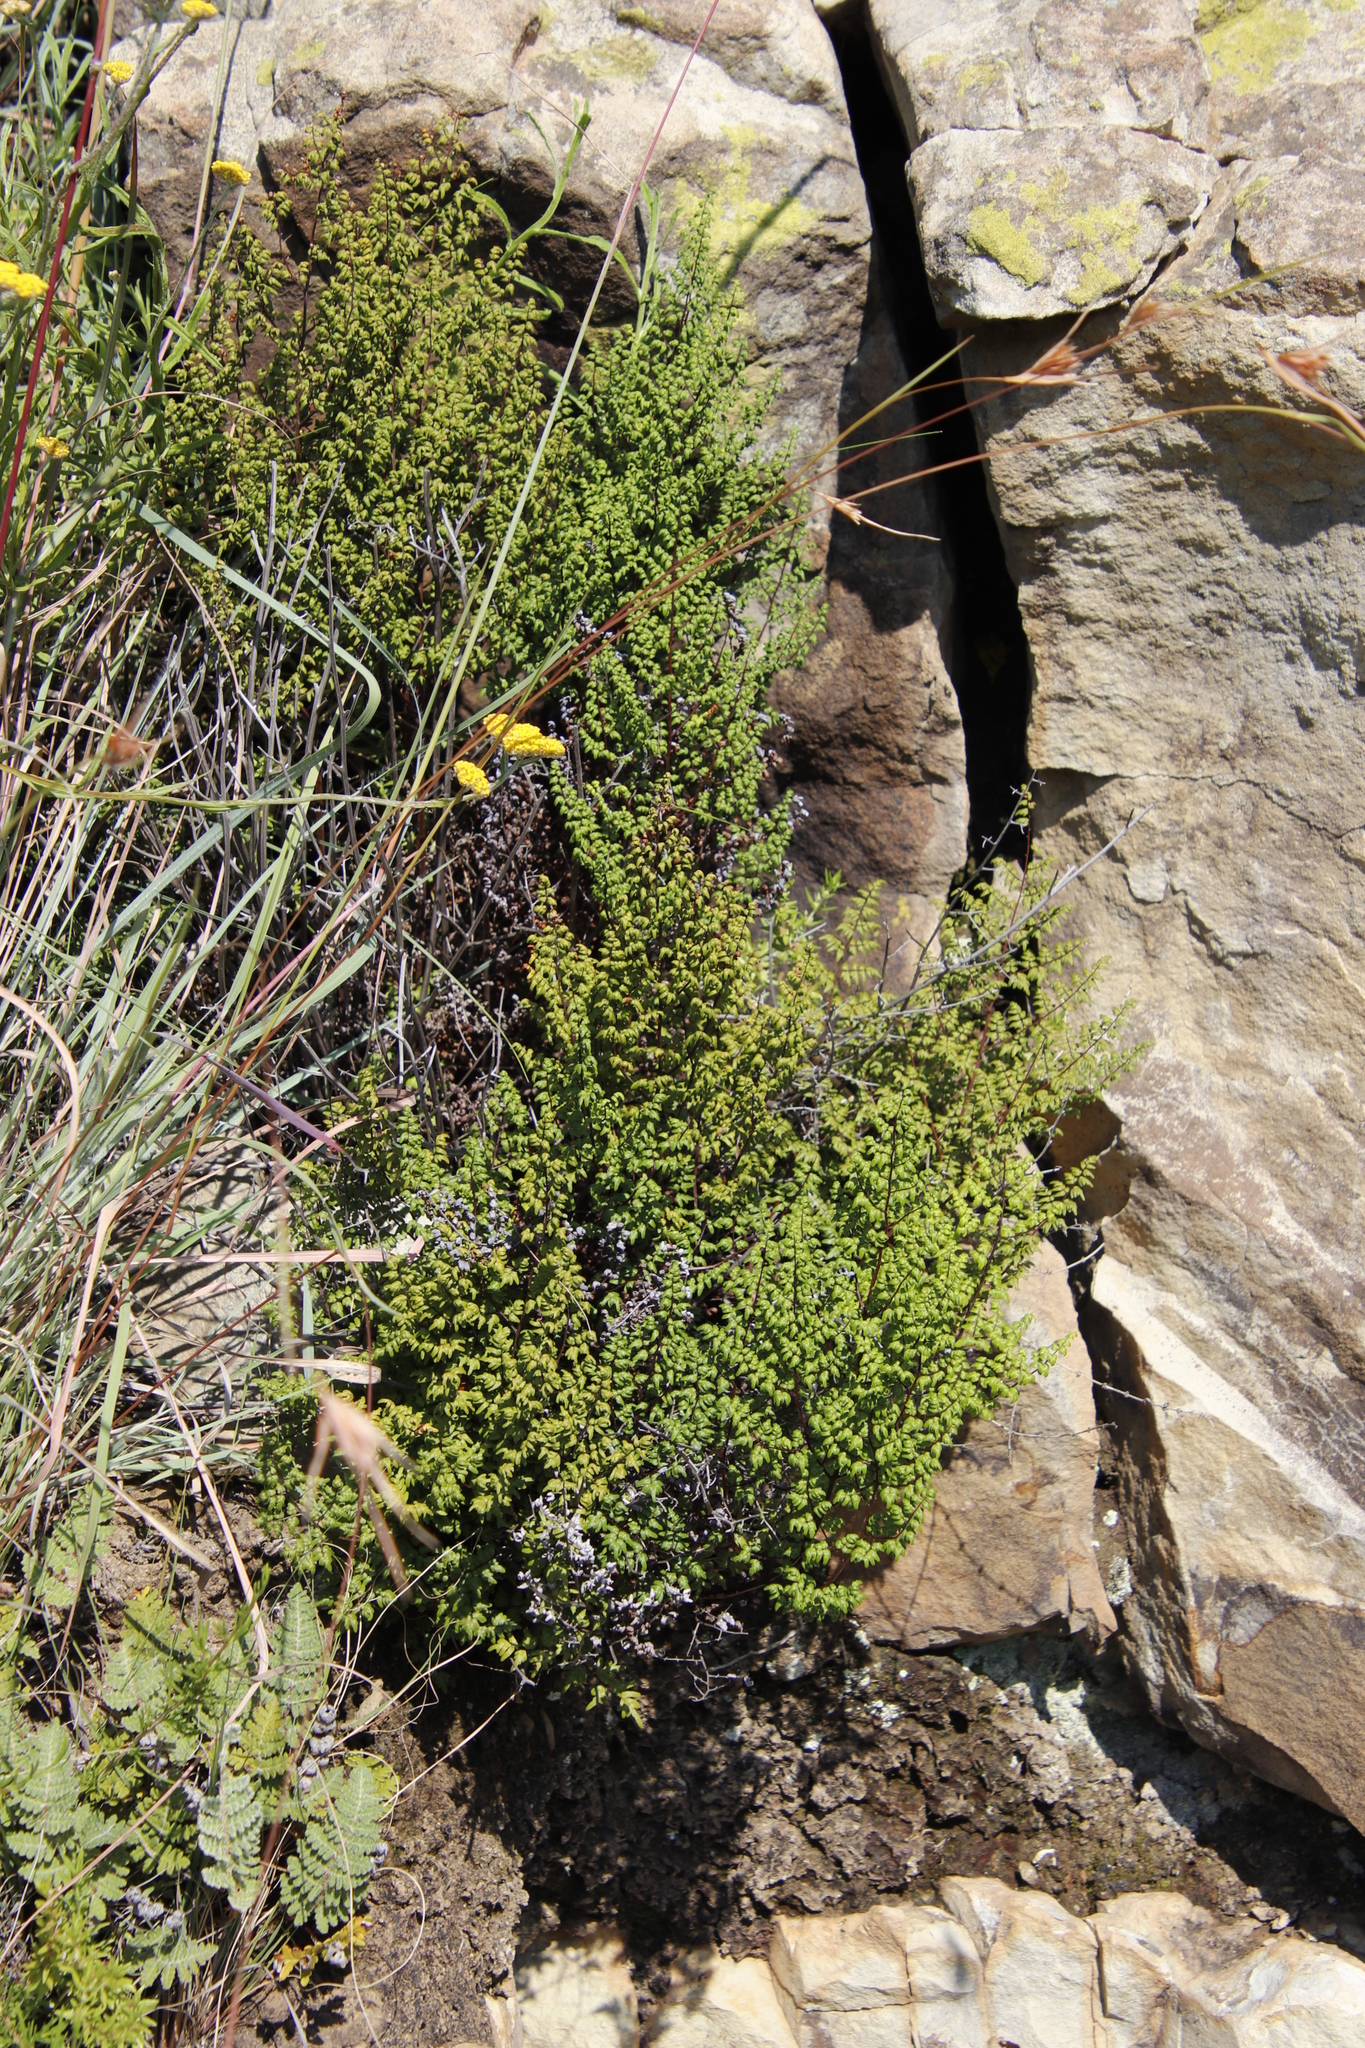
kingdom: Plantae
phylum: Tracheophyta
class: Polypodiopsida
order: Polypodiales
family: Pteridaceae
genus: Cheilanthes
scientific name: Cheilanthes quadripinnata
